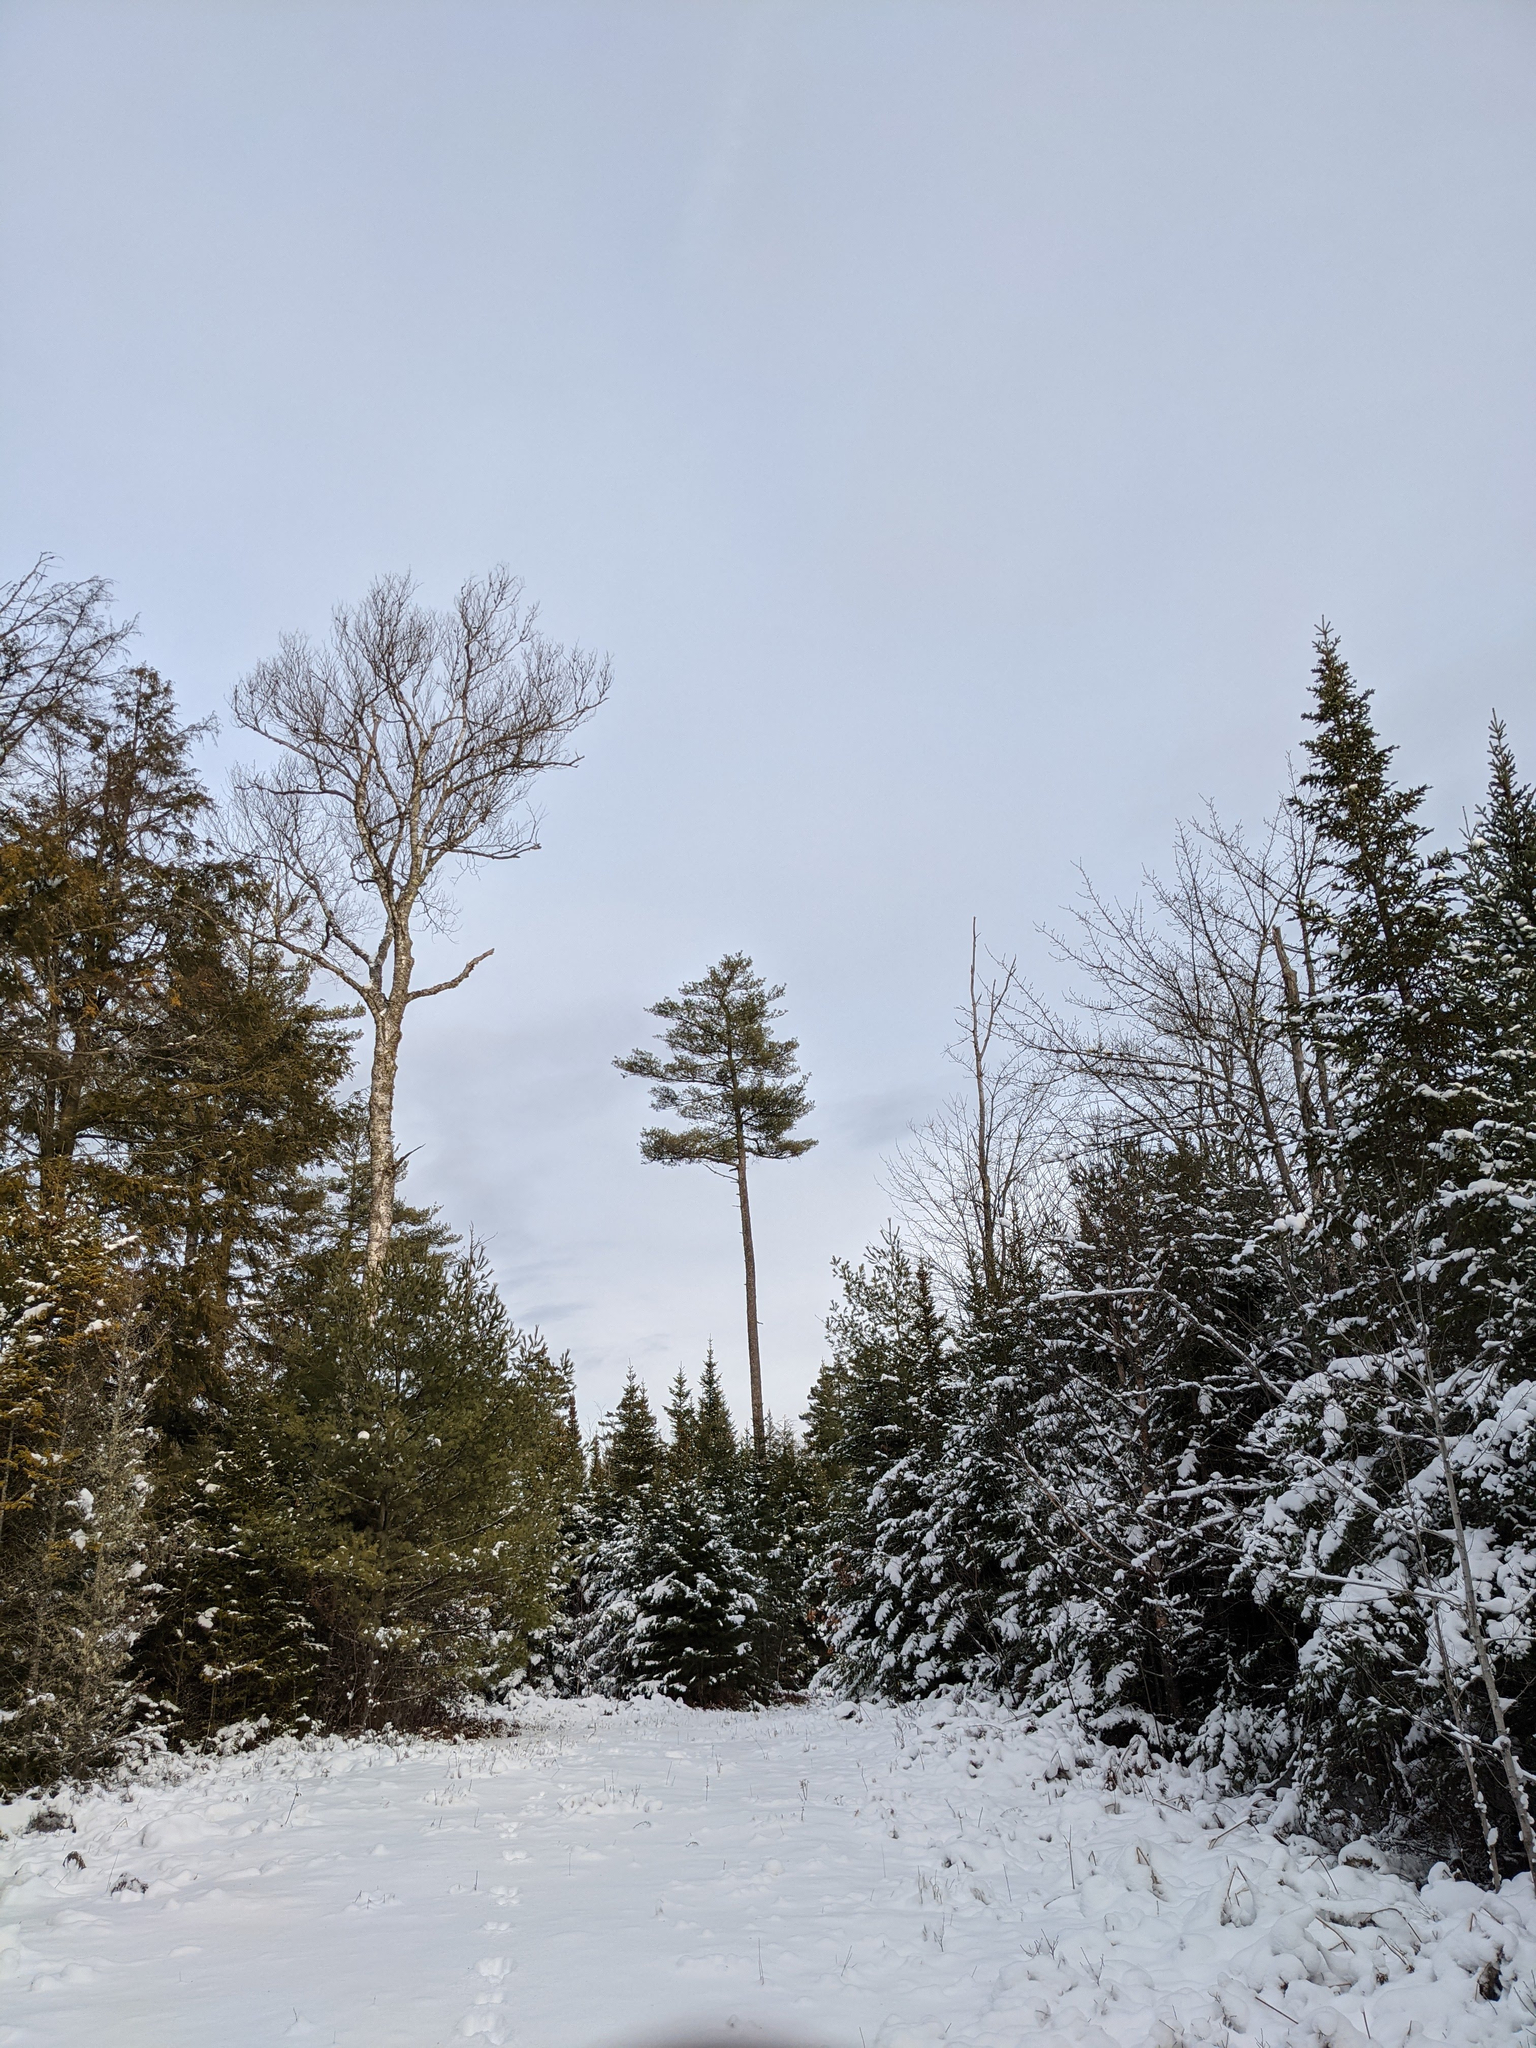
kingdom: Plantae
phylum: Tracheophyta
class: Pinopsida
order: Pinales
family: Pinaceae
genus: Pinus
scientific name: Pinus strobus
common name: Weymouth pine
